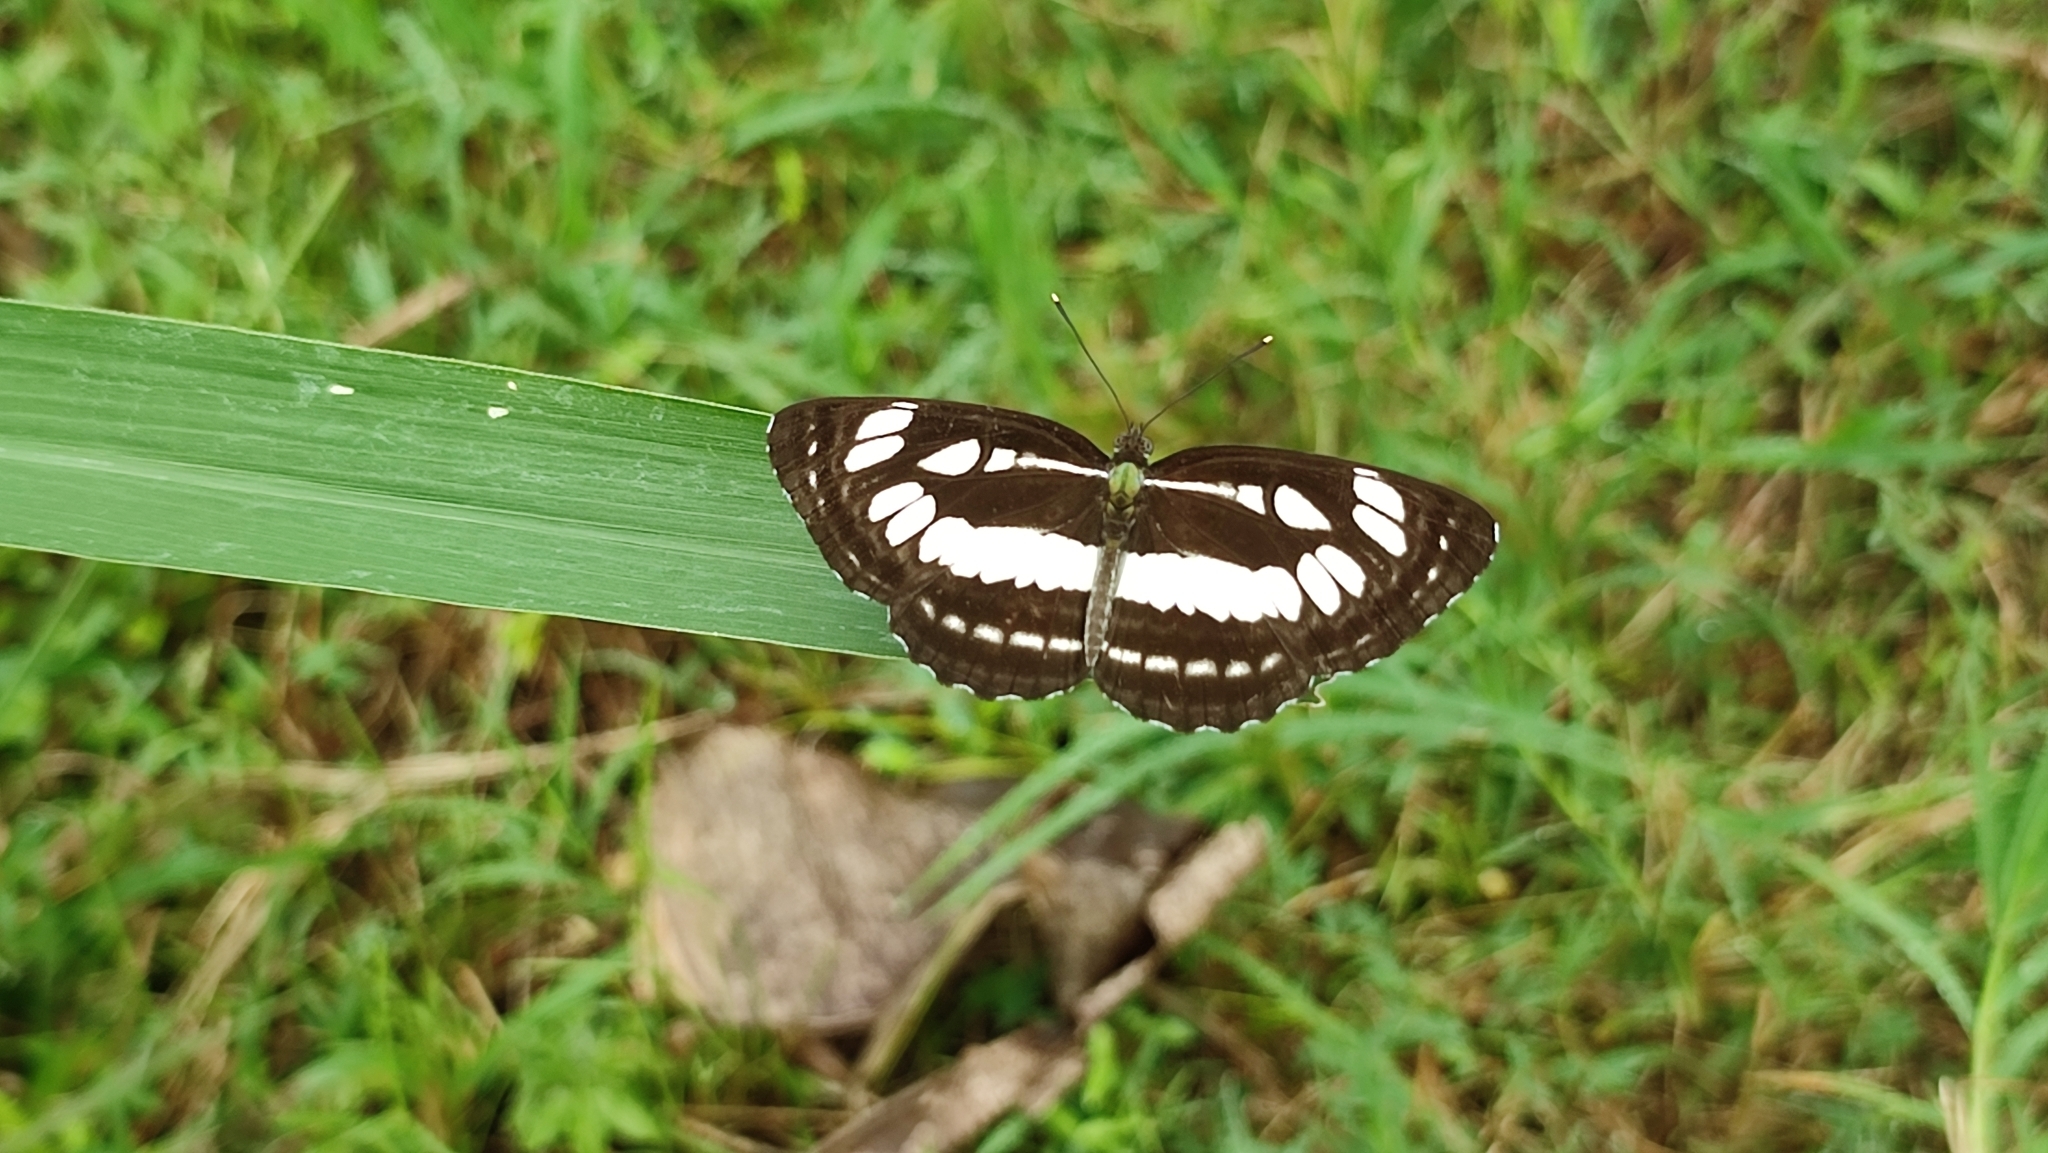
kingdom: Animalia
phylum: Arthropoda
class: Insecta
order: Lepidoptera
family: Nymphalidae
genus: Neptis
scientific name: Neptis hylas
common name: Common sailer
